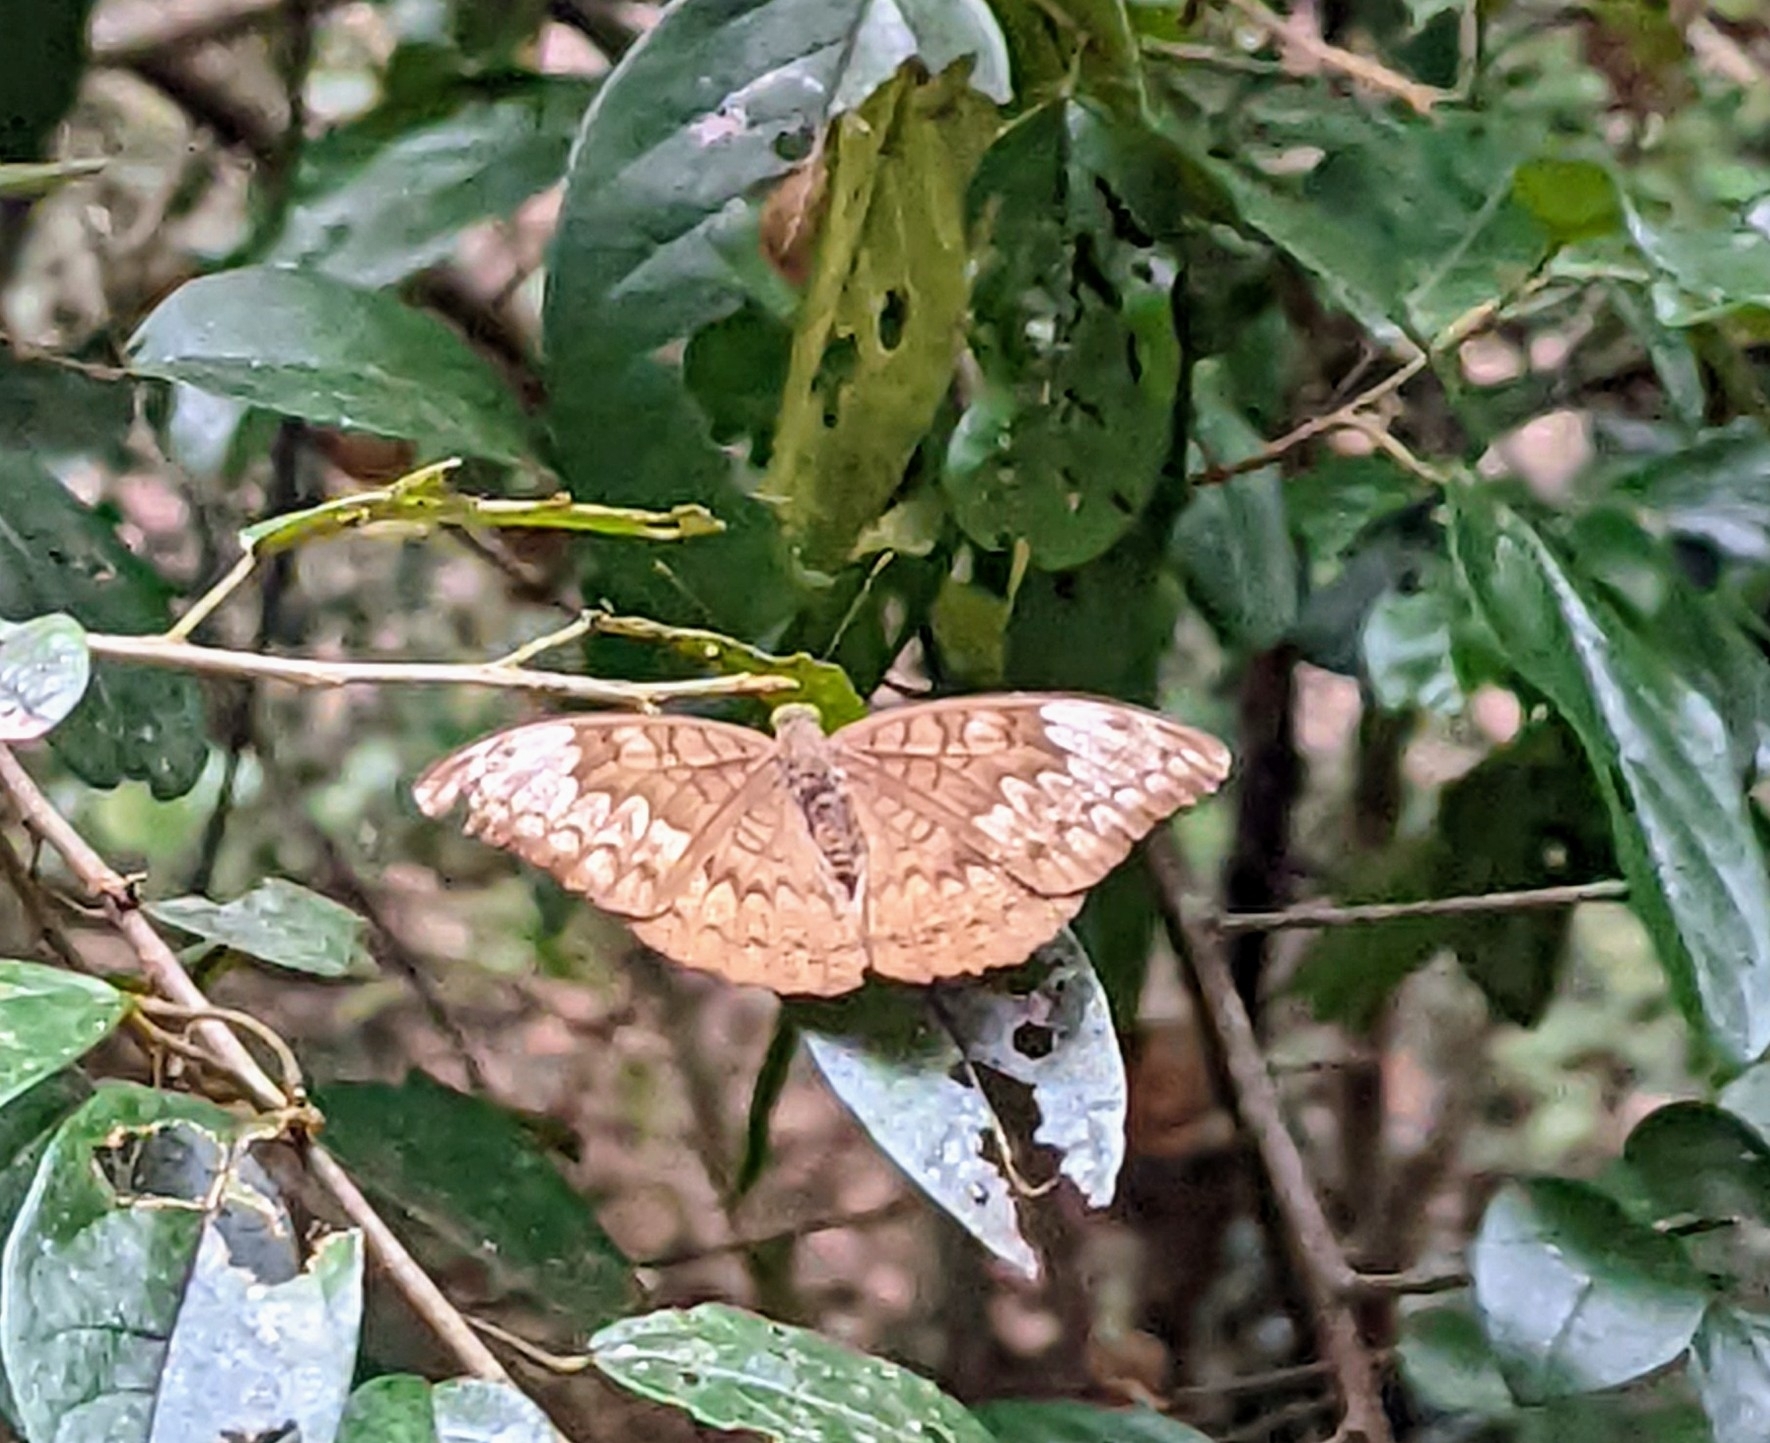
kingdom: Animalia
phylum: Arthropoda
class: Insecta
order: Lepidoptera
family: Nymphalidae
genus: Tanaecia
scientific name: Tanaecia jahnu
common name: Plain earl
